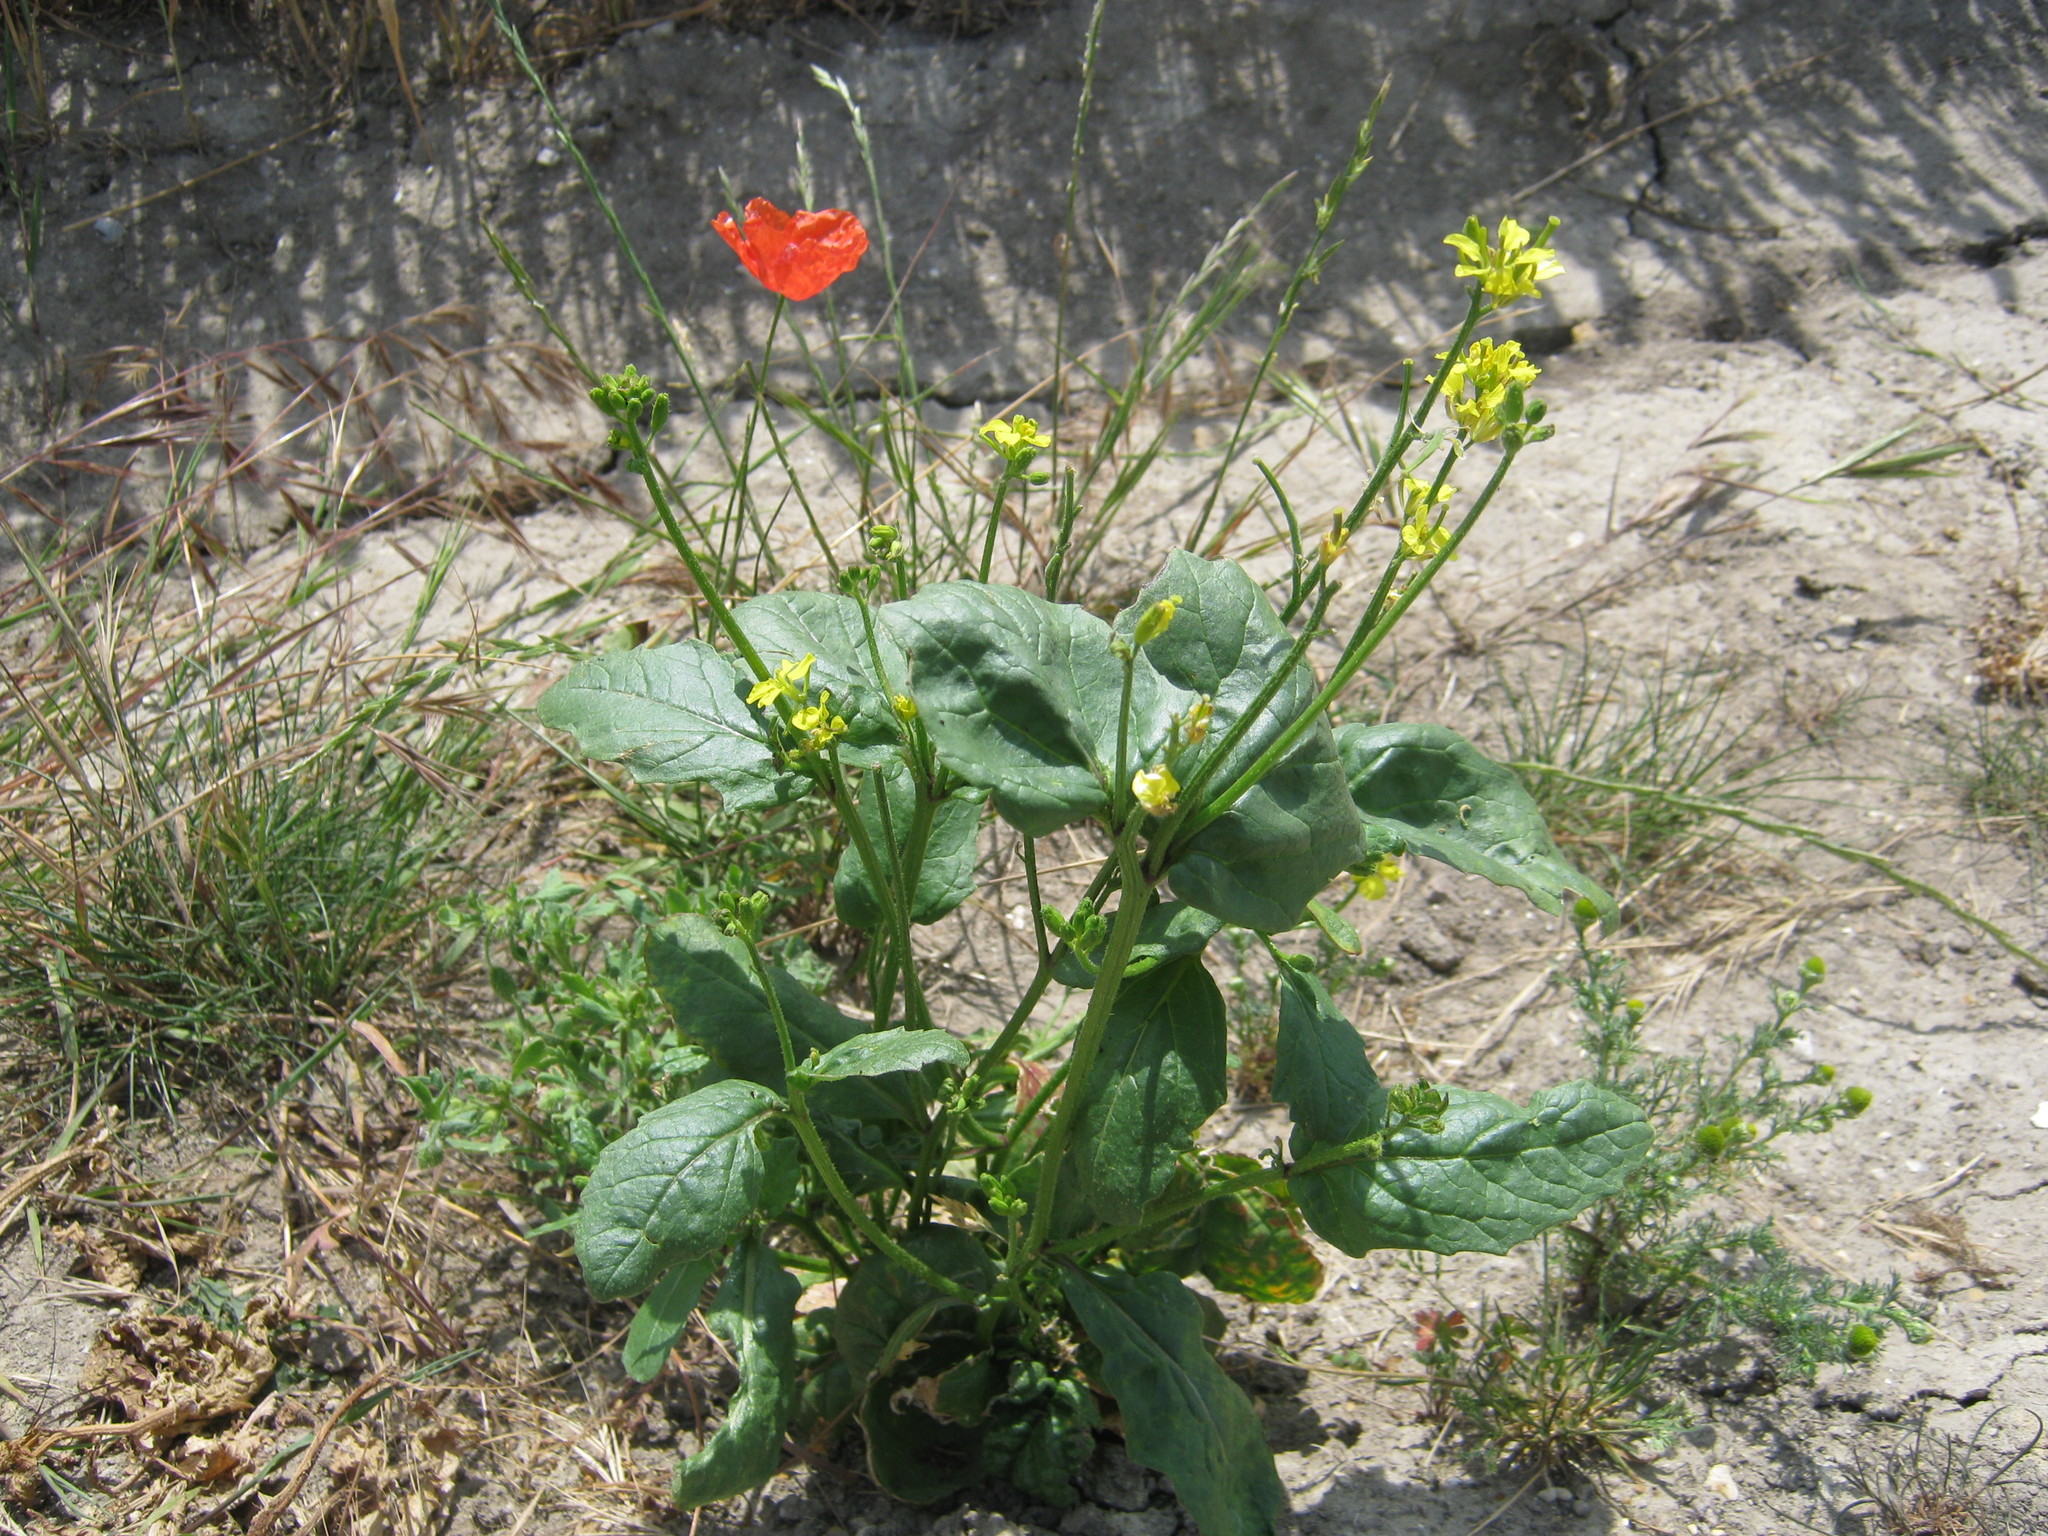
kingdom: Plantae
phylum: Tracheophyta
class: Magnoliopsida
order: Brassicales
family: Brassicaceae
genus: Sinapis
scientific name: Sinapis arvensis
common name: Charlock
